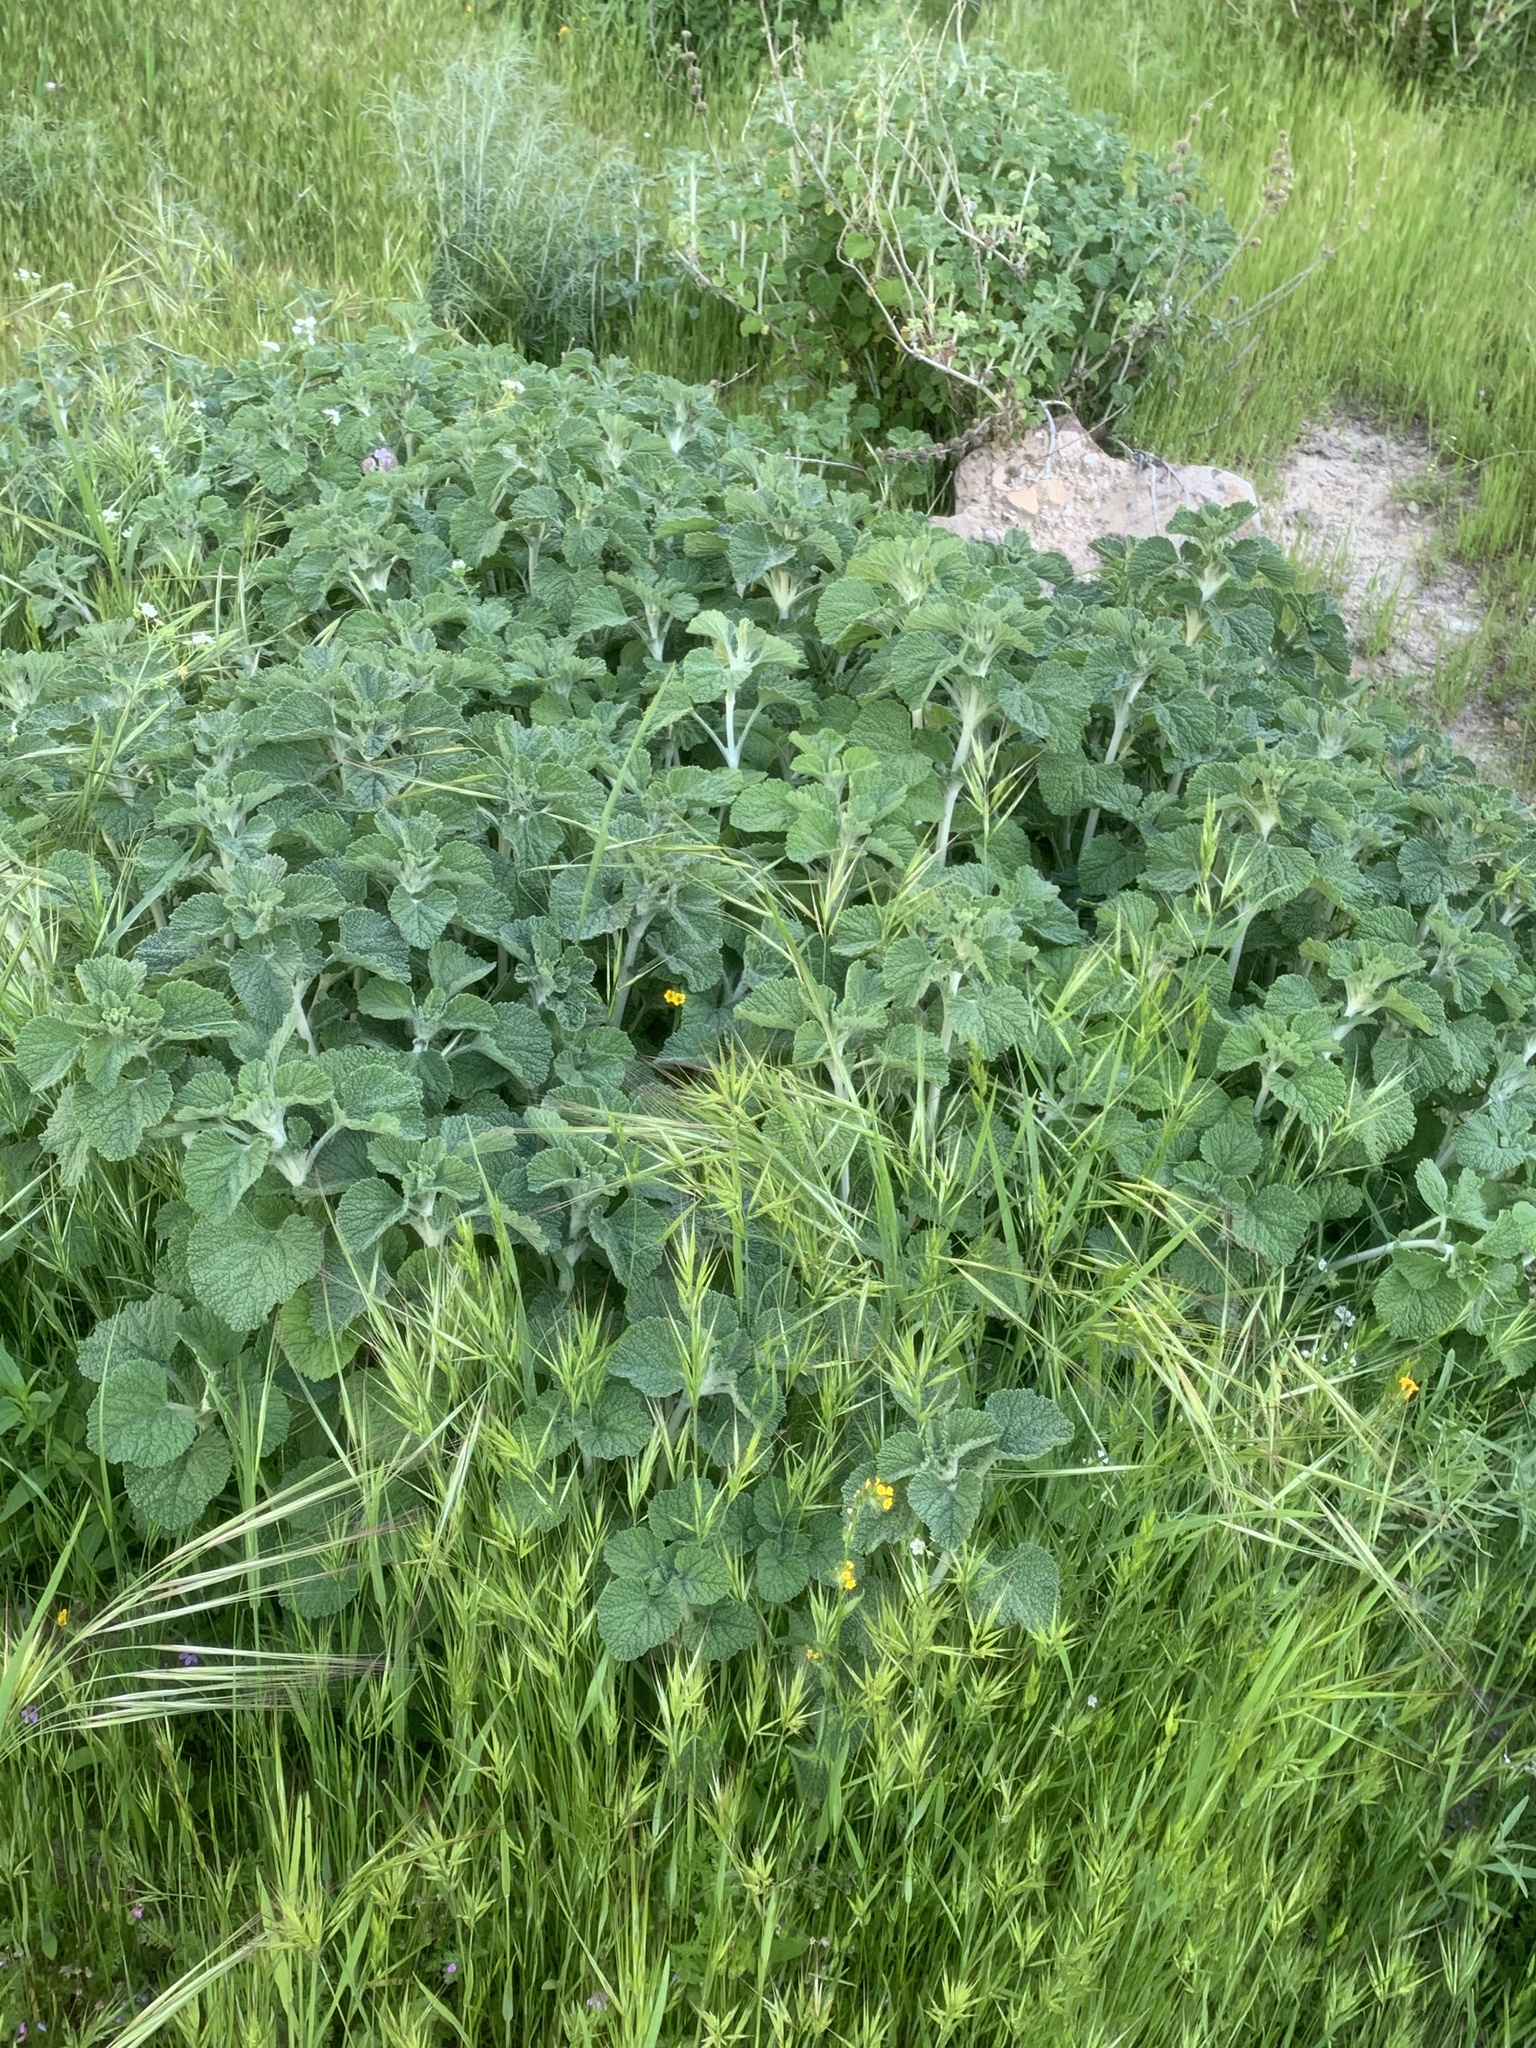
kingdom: Plantae
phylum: Tracheophyta
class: Magnoliopsida
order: Lamiales
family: Lamiaceae
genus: Marrubium
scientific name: Marrubium vulgare
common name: Horehound
